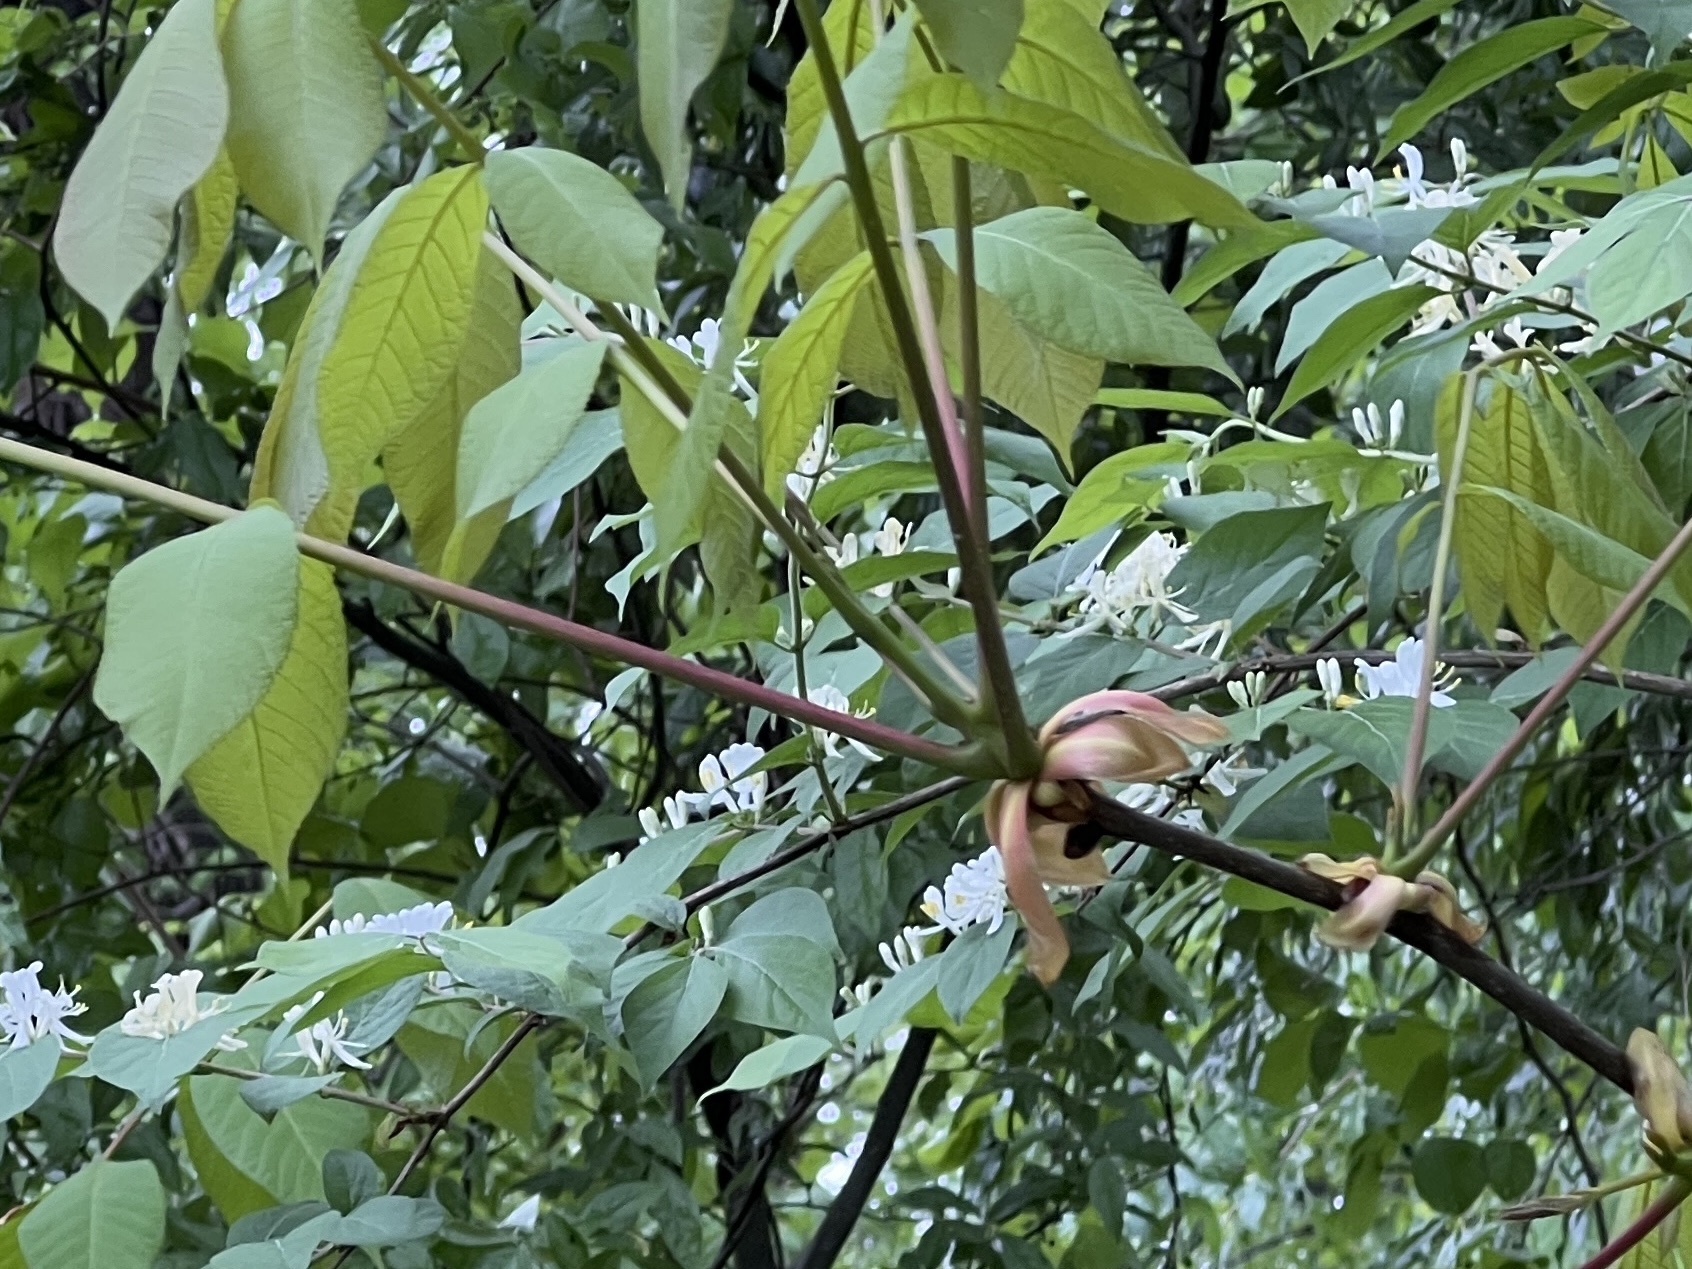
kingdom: Plantae
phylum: Tracheophyta
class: Magnoliopsida
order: Fagales
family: Juglandaceae
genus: Carya
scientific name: Carya glabra
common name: Pignut hickory
